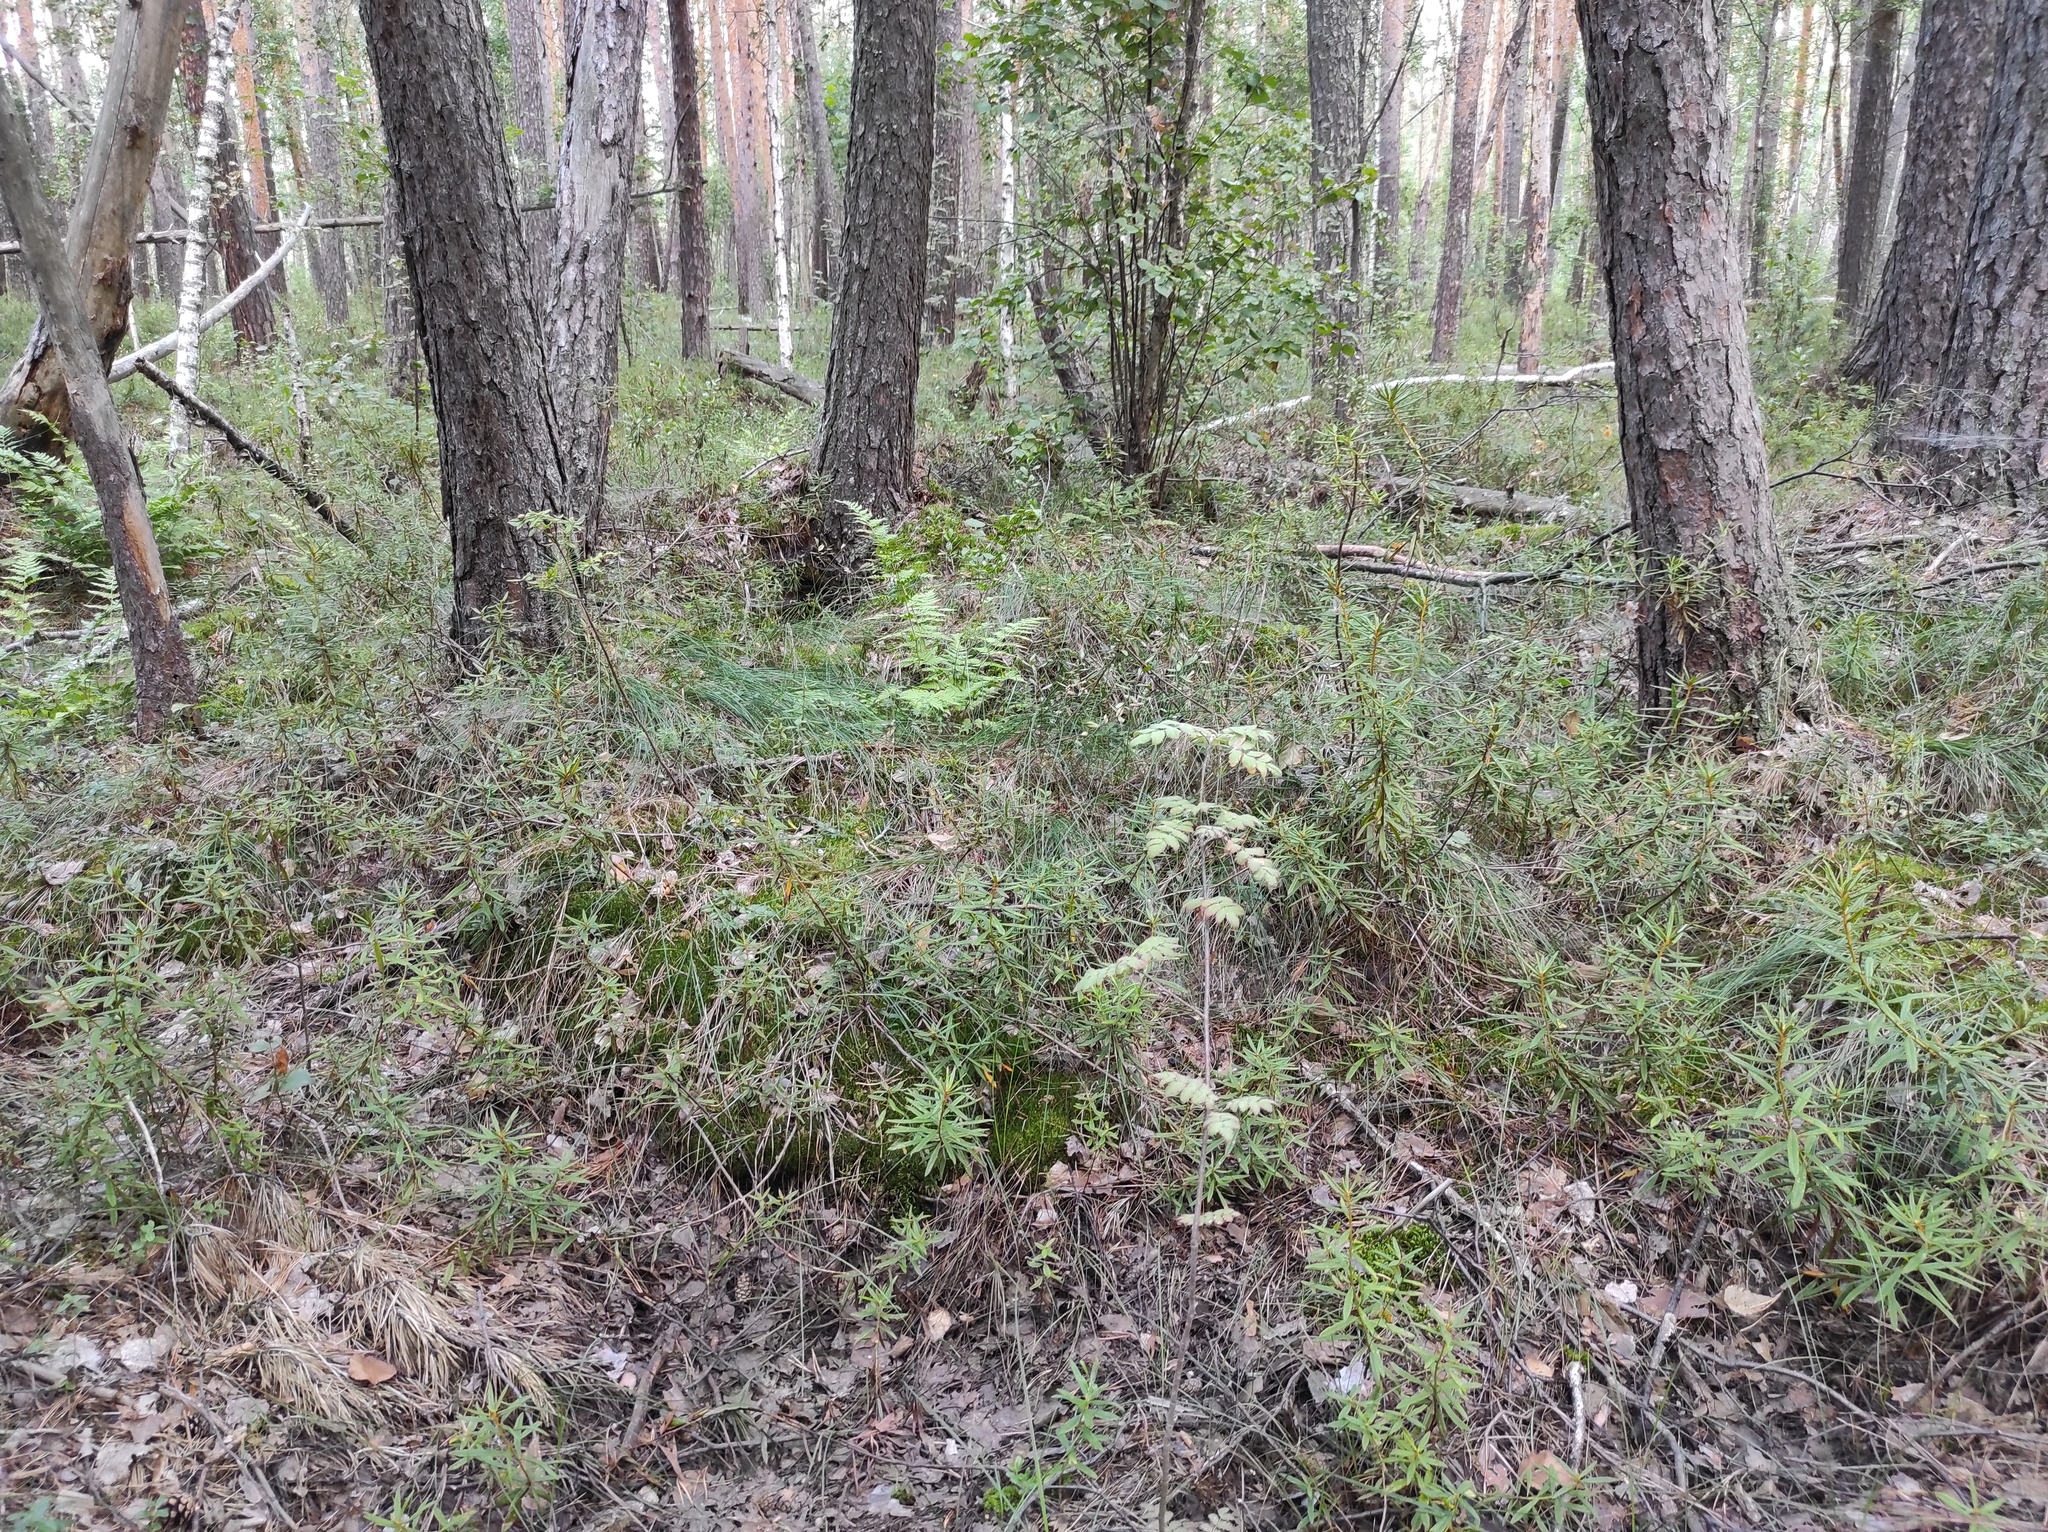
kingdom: Plantae
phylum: Tracheophyta
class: Magnoliopsida
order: Ericales
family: Ericaceae
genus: Rhododendron
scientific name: Rhododendron tomentosum
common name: Marsh labrador tea
